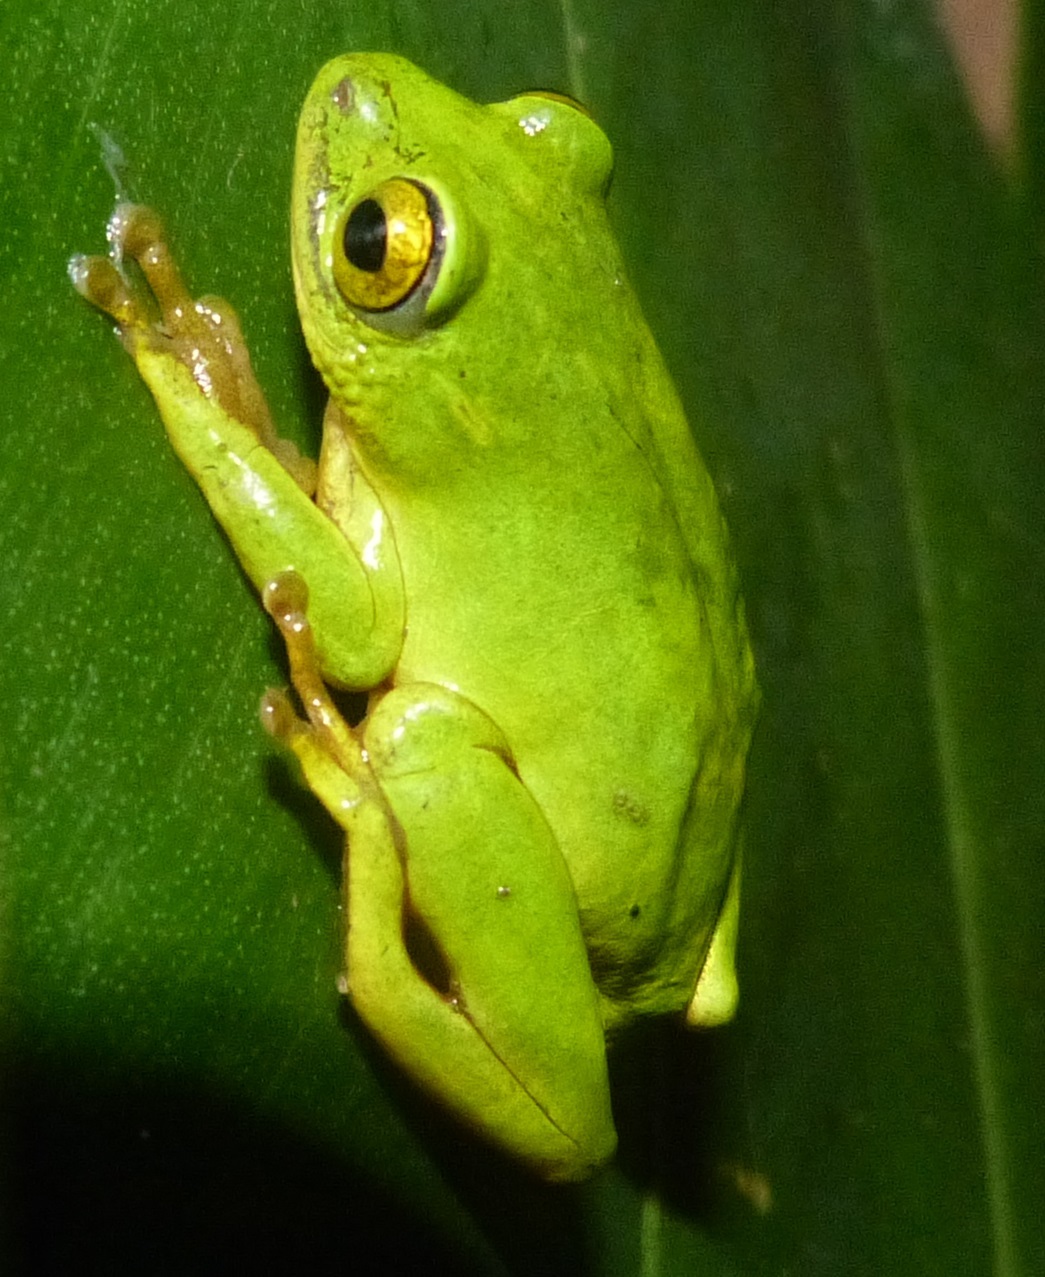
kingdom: Animalia
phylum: Chordata
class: Amphibia
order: Anura
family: Hyperoliidae
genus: Hyperolius
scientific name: Hyperolius tuberilinguis
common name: Tinker reed frog
